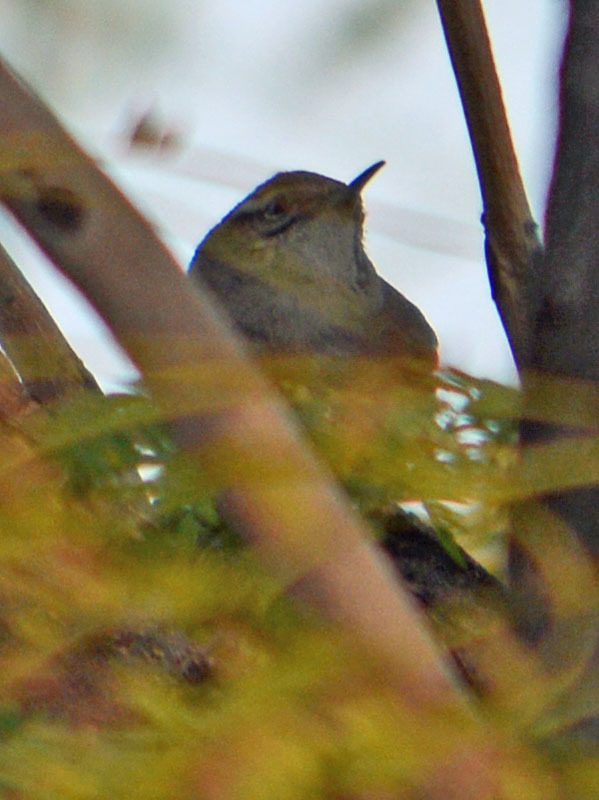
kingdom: Animalia
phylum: Chordata
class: Aves
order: Passeriformes
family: Troglodytidae
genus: Thryomanes
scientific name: Thryomanes bewickii
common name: Bewick's wren
